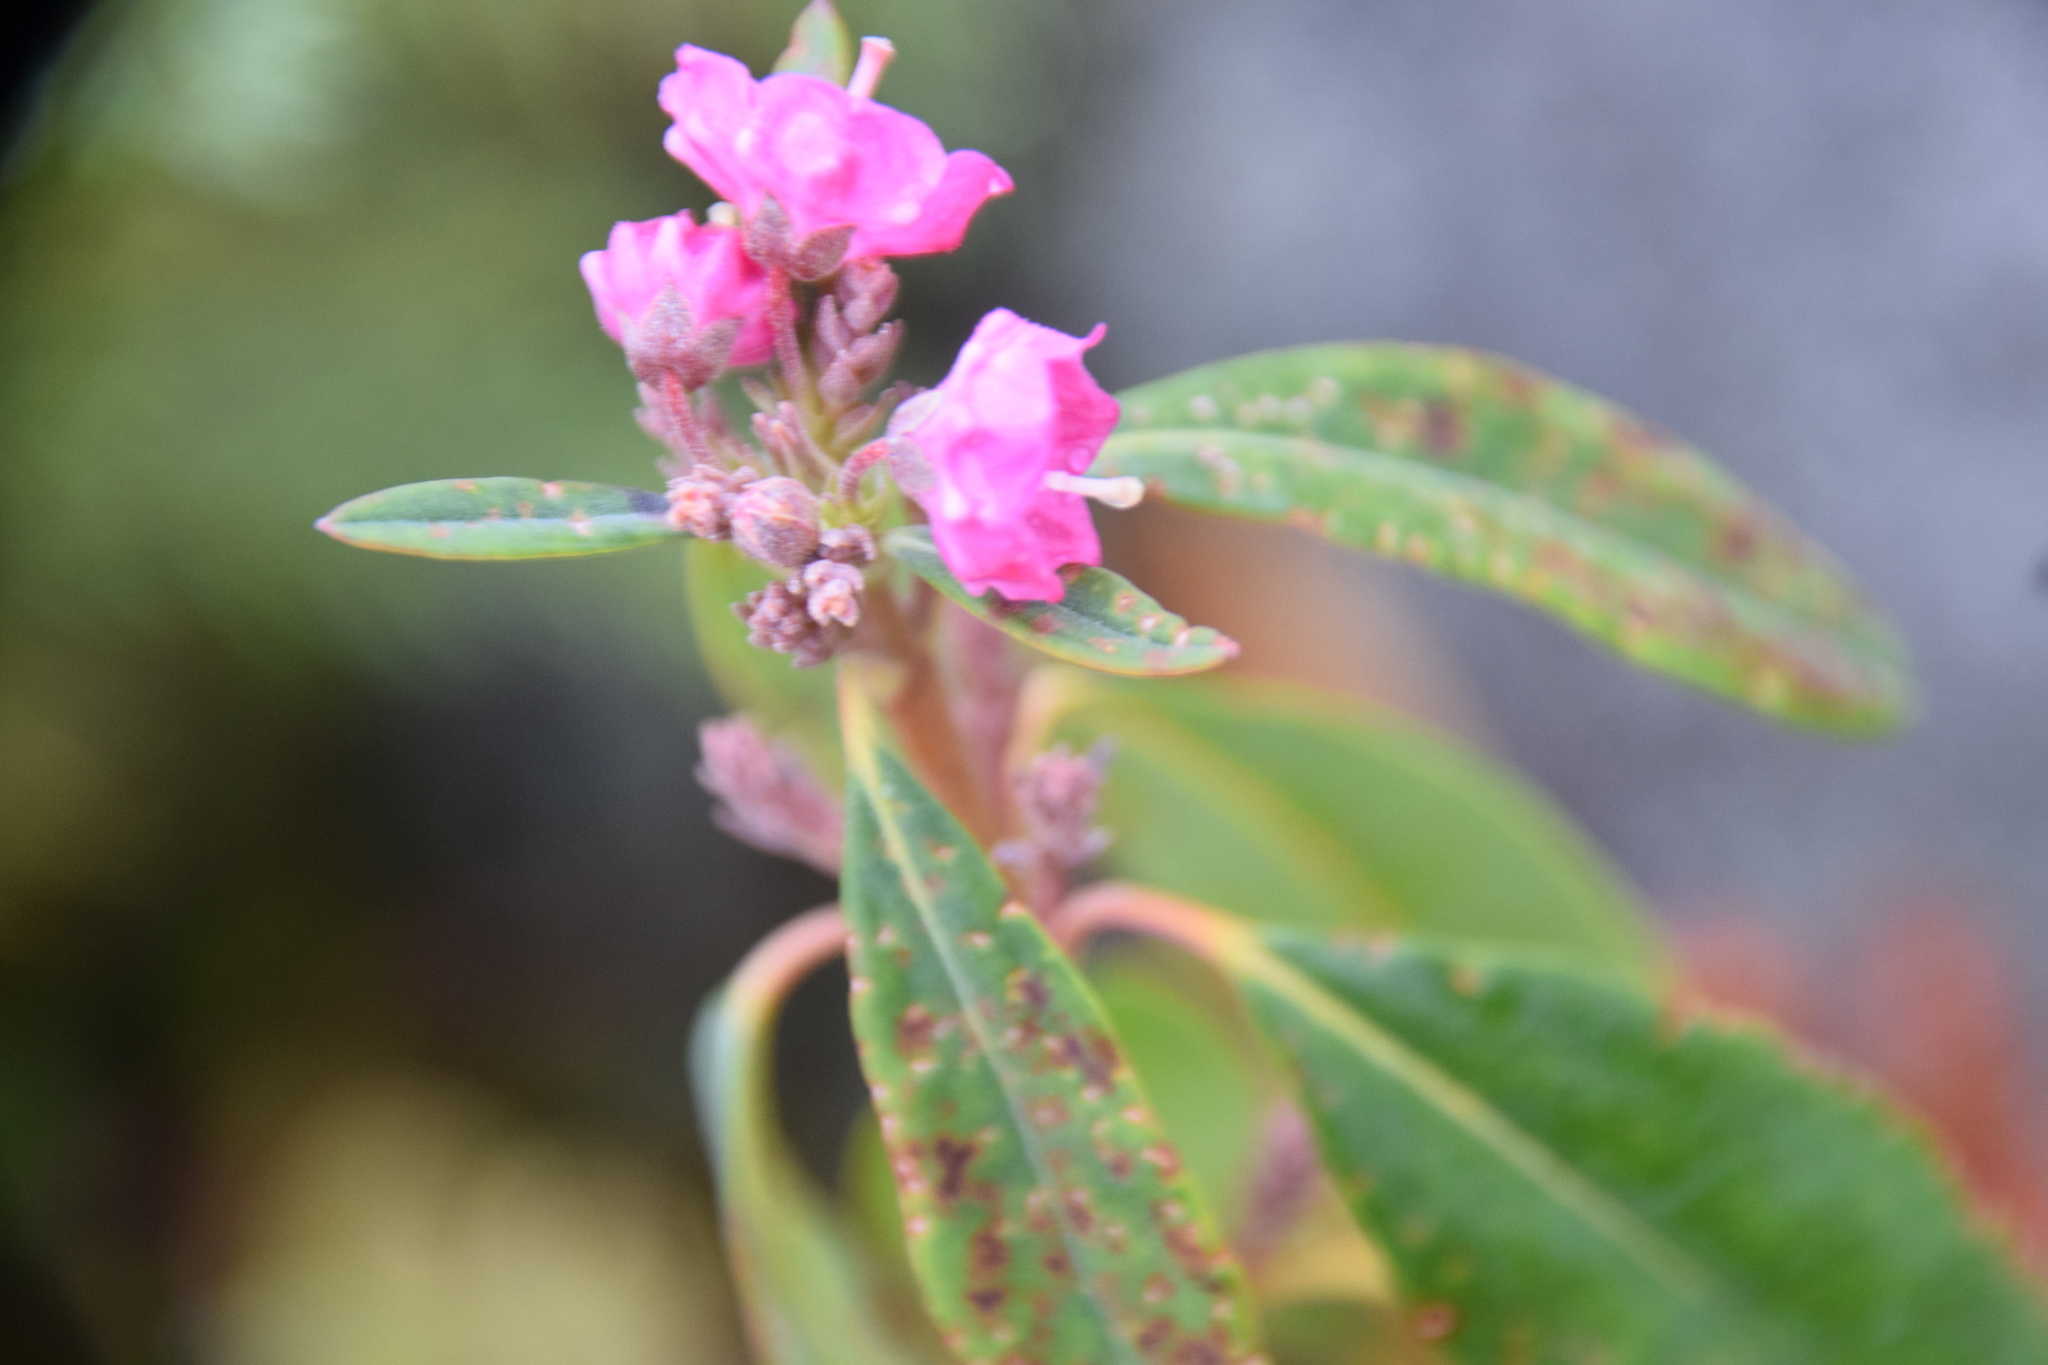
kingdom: Plantae
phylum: Tracheophyta
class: Magnoliopsida
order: Ericales
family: Ericaceae
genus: Kalmia
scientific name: Kalmia angustifolia
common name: Sheep-laurel
